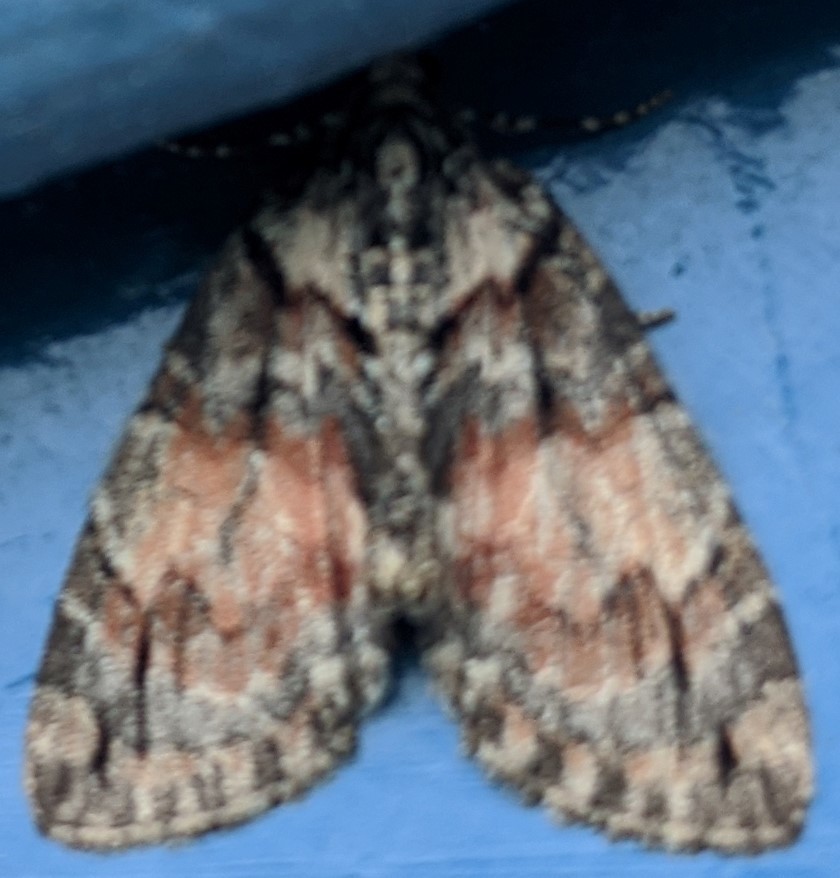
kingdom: Animalia
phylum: Arthropoda
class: Insecta
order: Lepidoptera
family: Geometridae
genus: Hydriomena
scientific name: Hydriomena perfracta
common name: Shattered hydriomena moth
